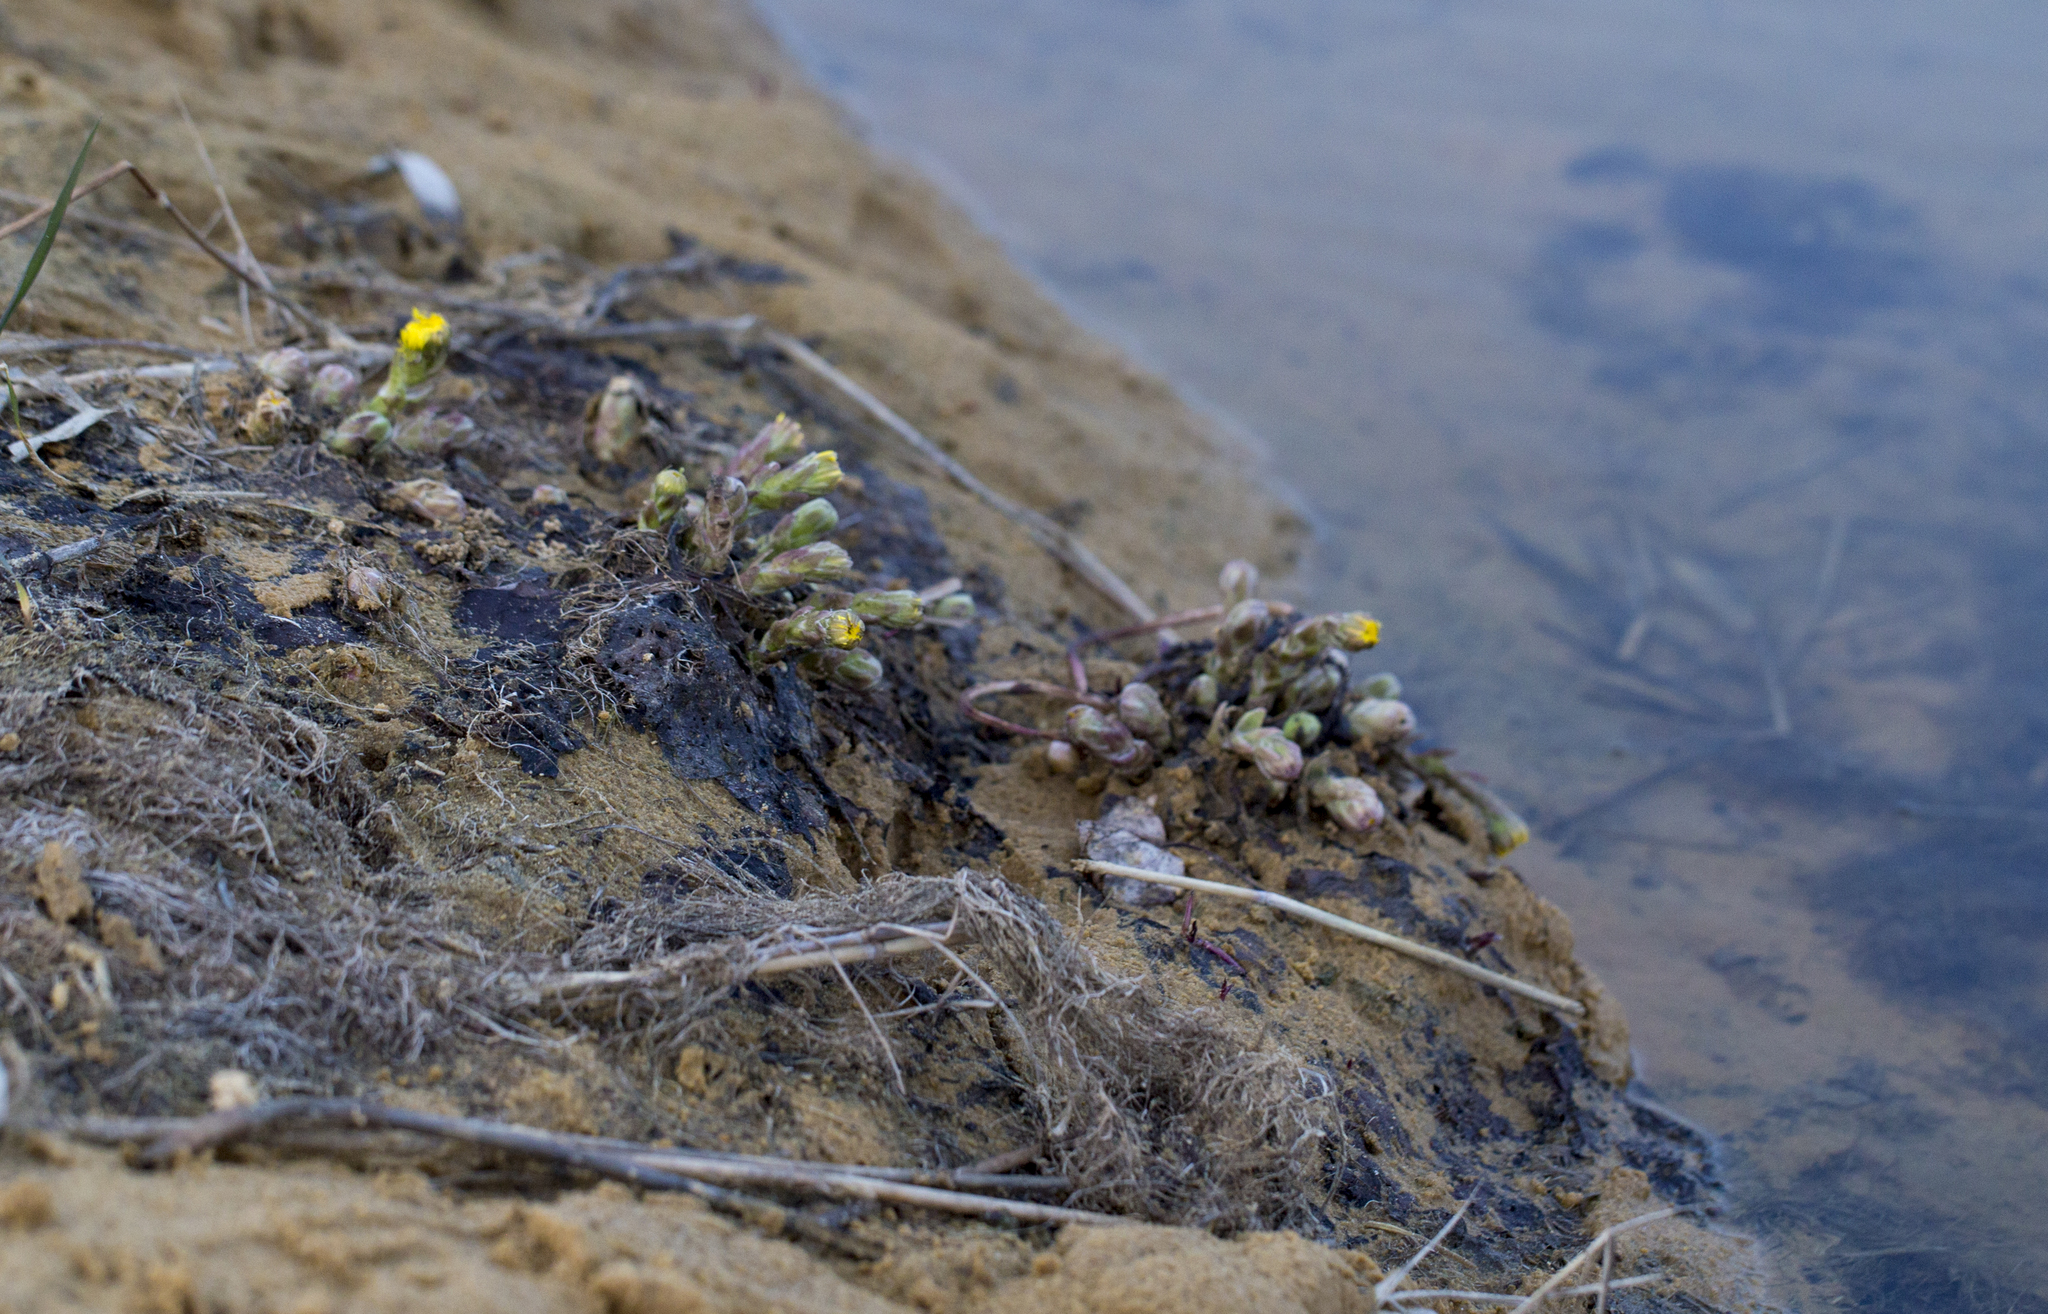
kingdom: Plantae
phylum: Tracheophyta
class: Magnoliopsida
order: Asterales
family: Asteraceae
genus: Tussilago
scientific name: Tussilago farfara
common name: Coltsfoot
